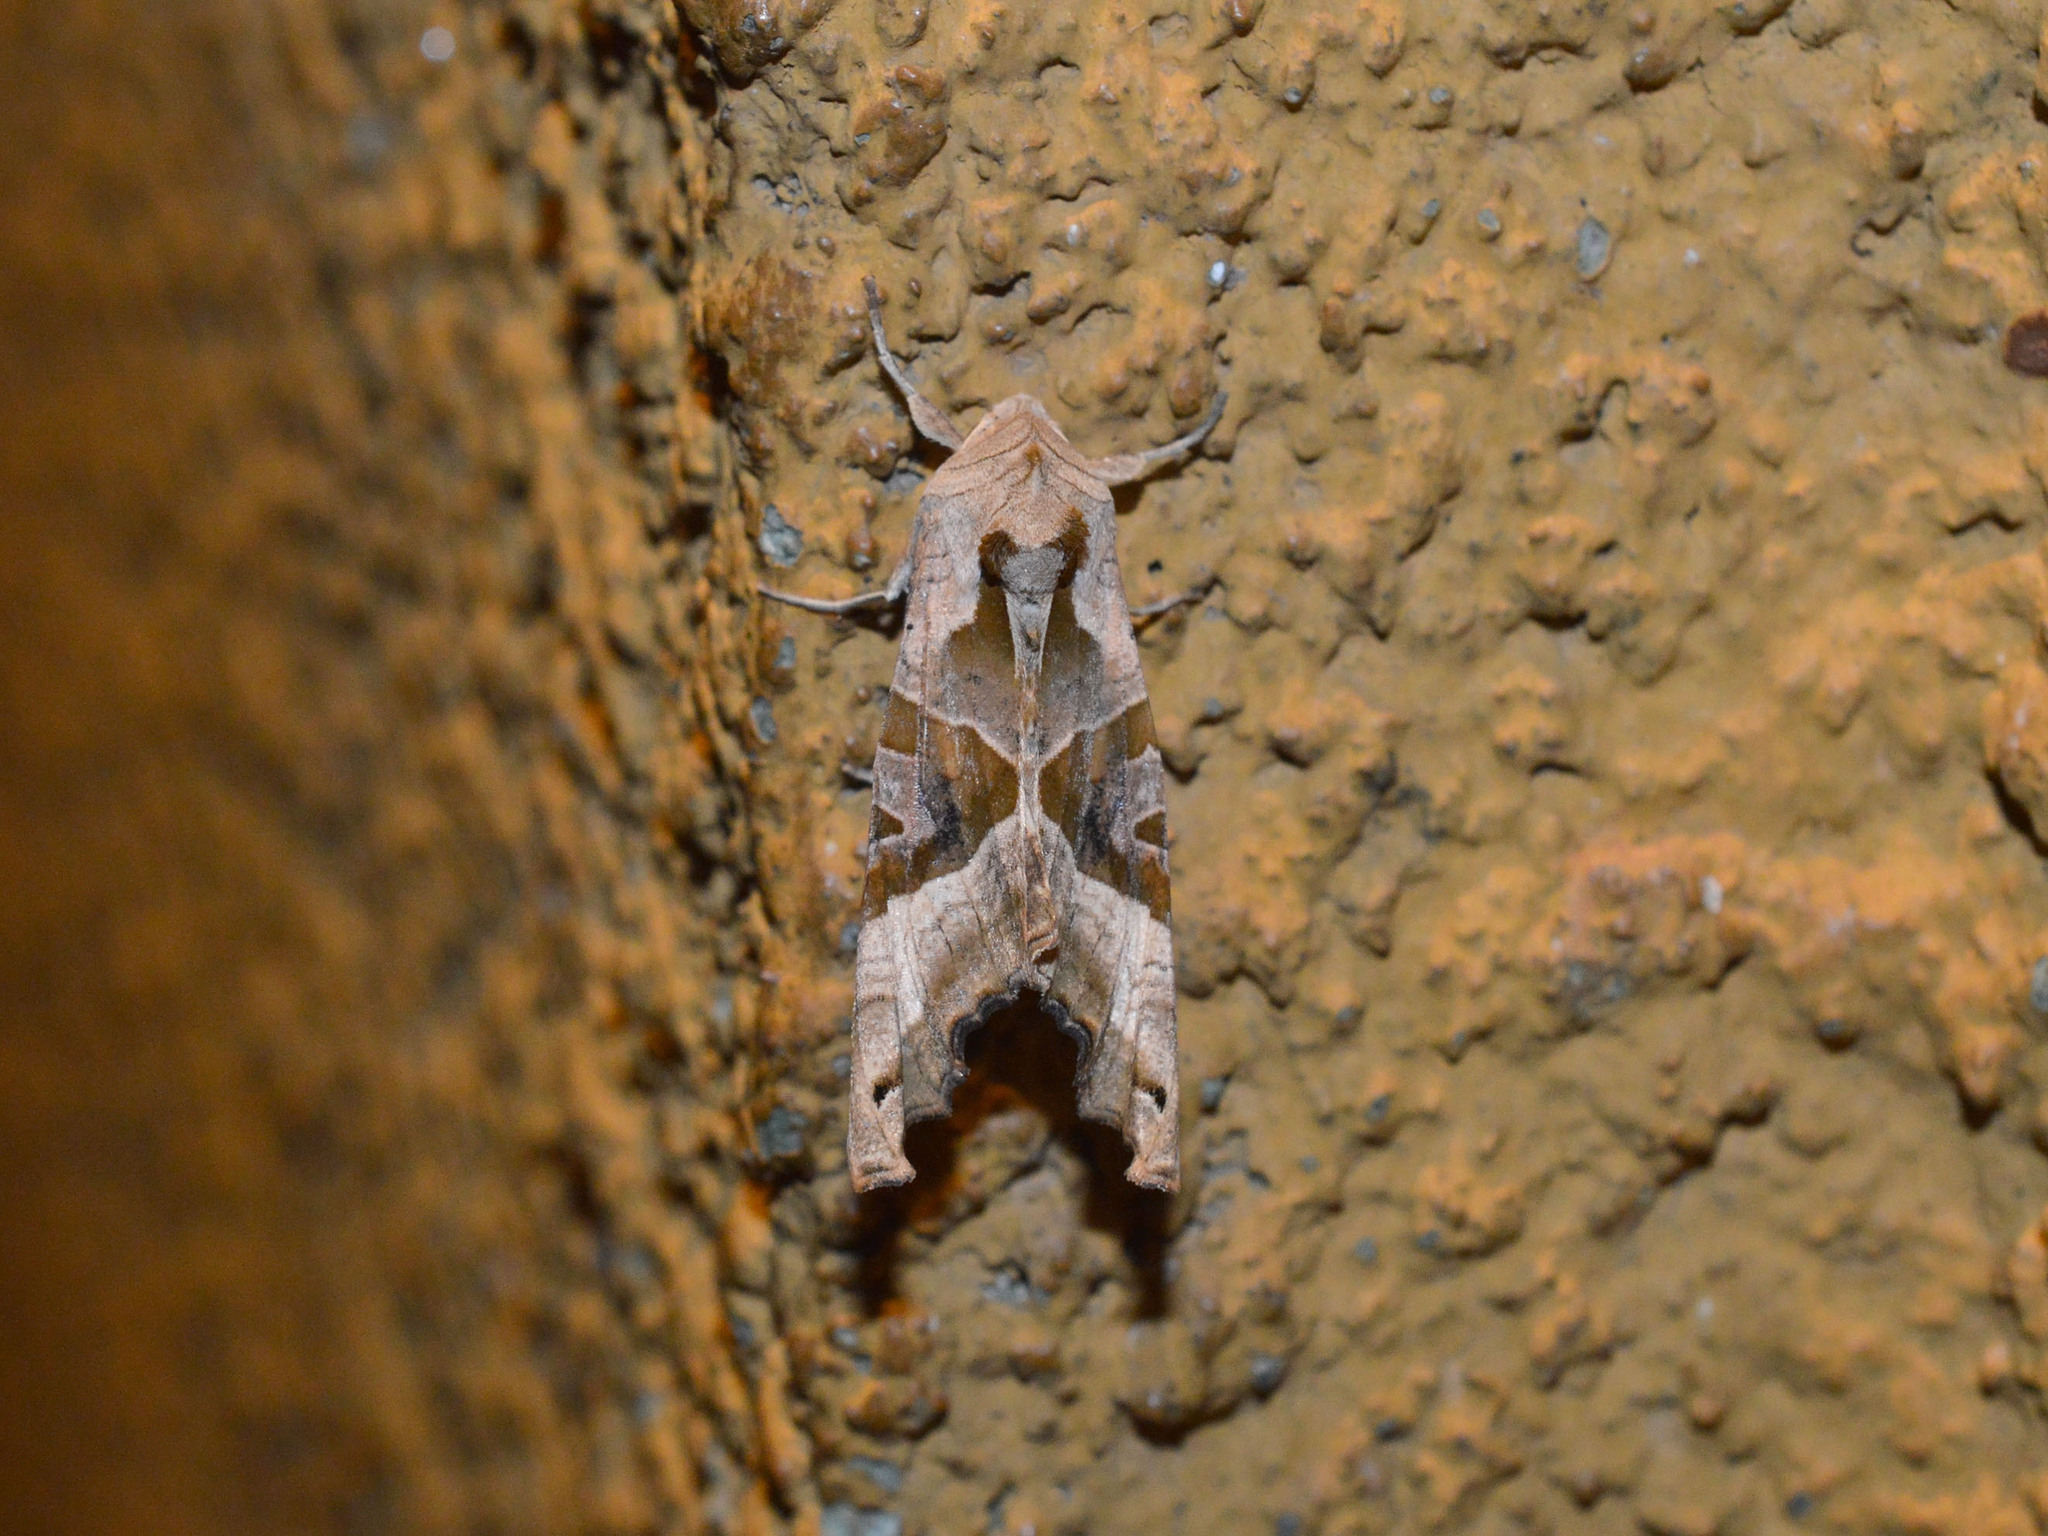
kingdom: Animalia
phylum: Arthropoda
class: Insecta
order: Lepidoptera
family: Noctuidae
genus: Phlogophora
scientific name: Phlogophora meticulosa
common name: Angle shades
